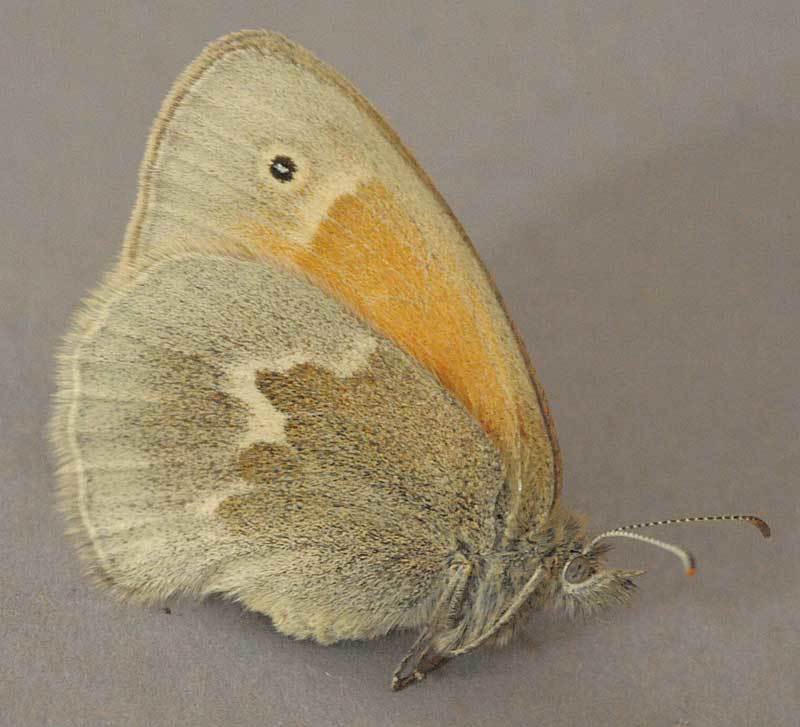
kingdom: Animalia
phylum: Arthropoda
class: Insecta
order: Lepidoptera
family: Nymphalidae
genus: Coenonympha
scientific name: Coenonympha california
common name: Common ringlet
